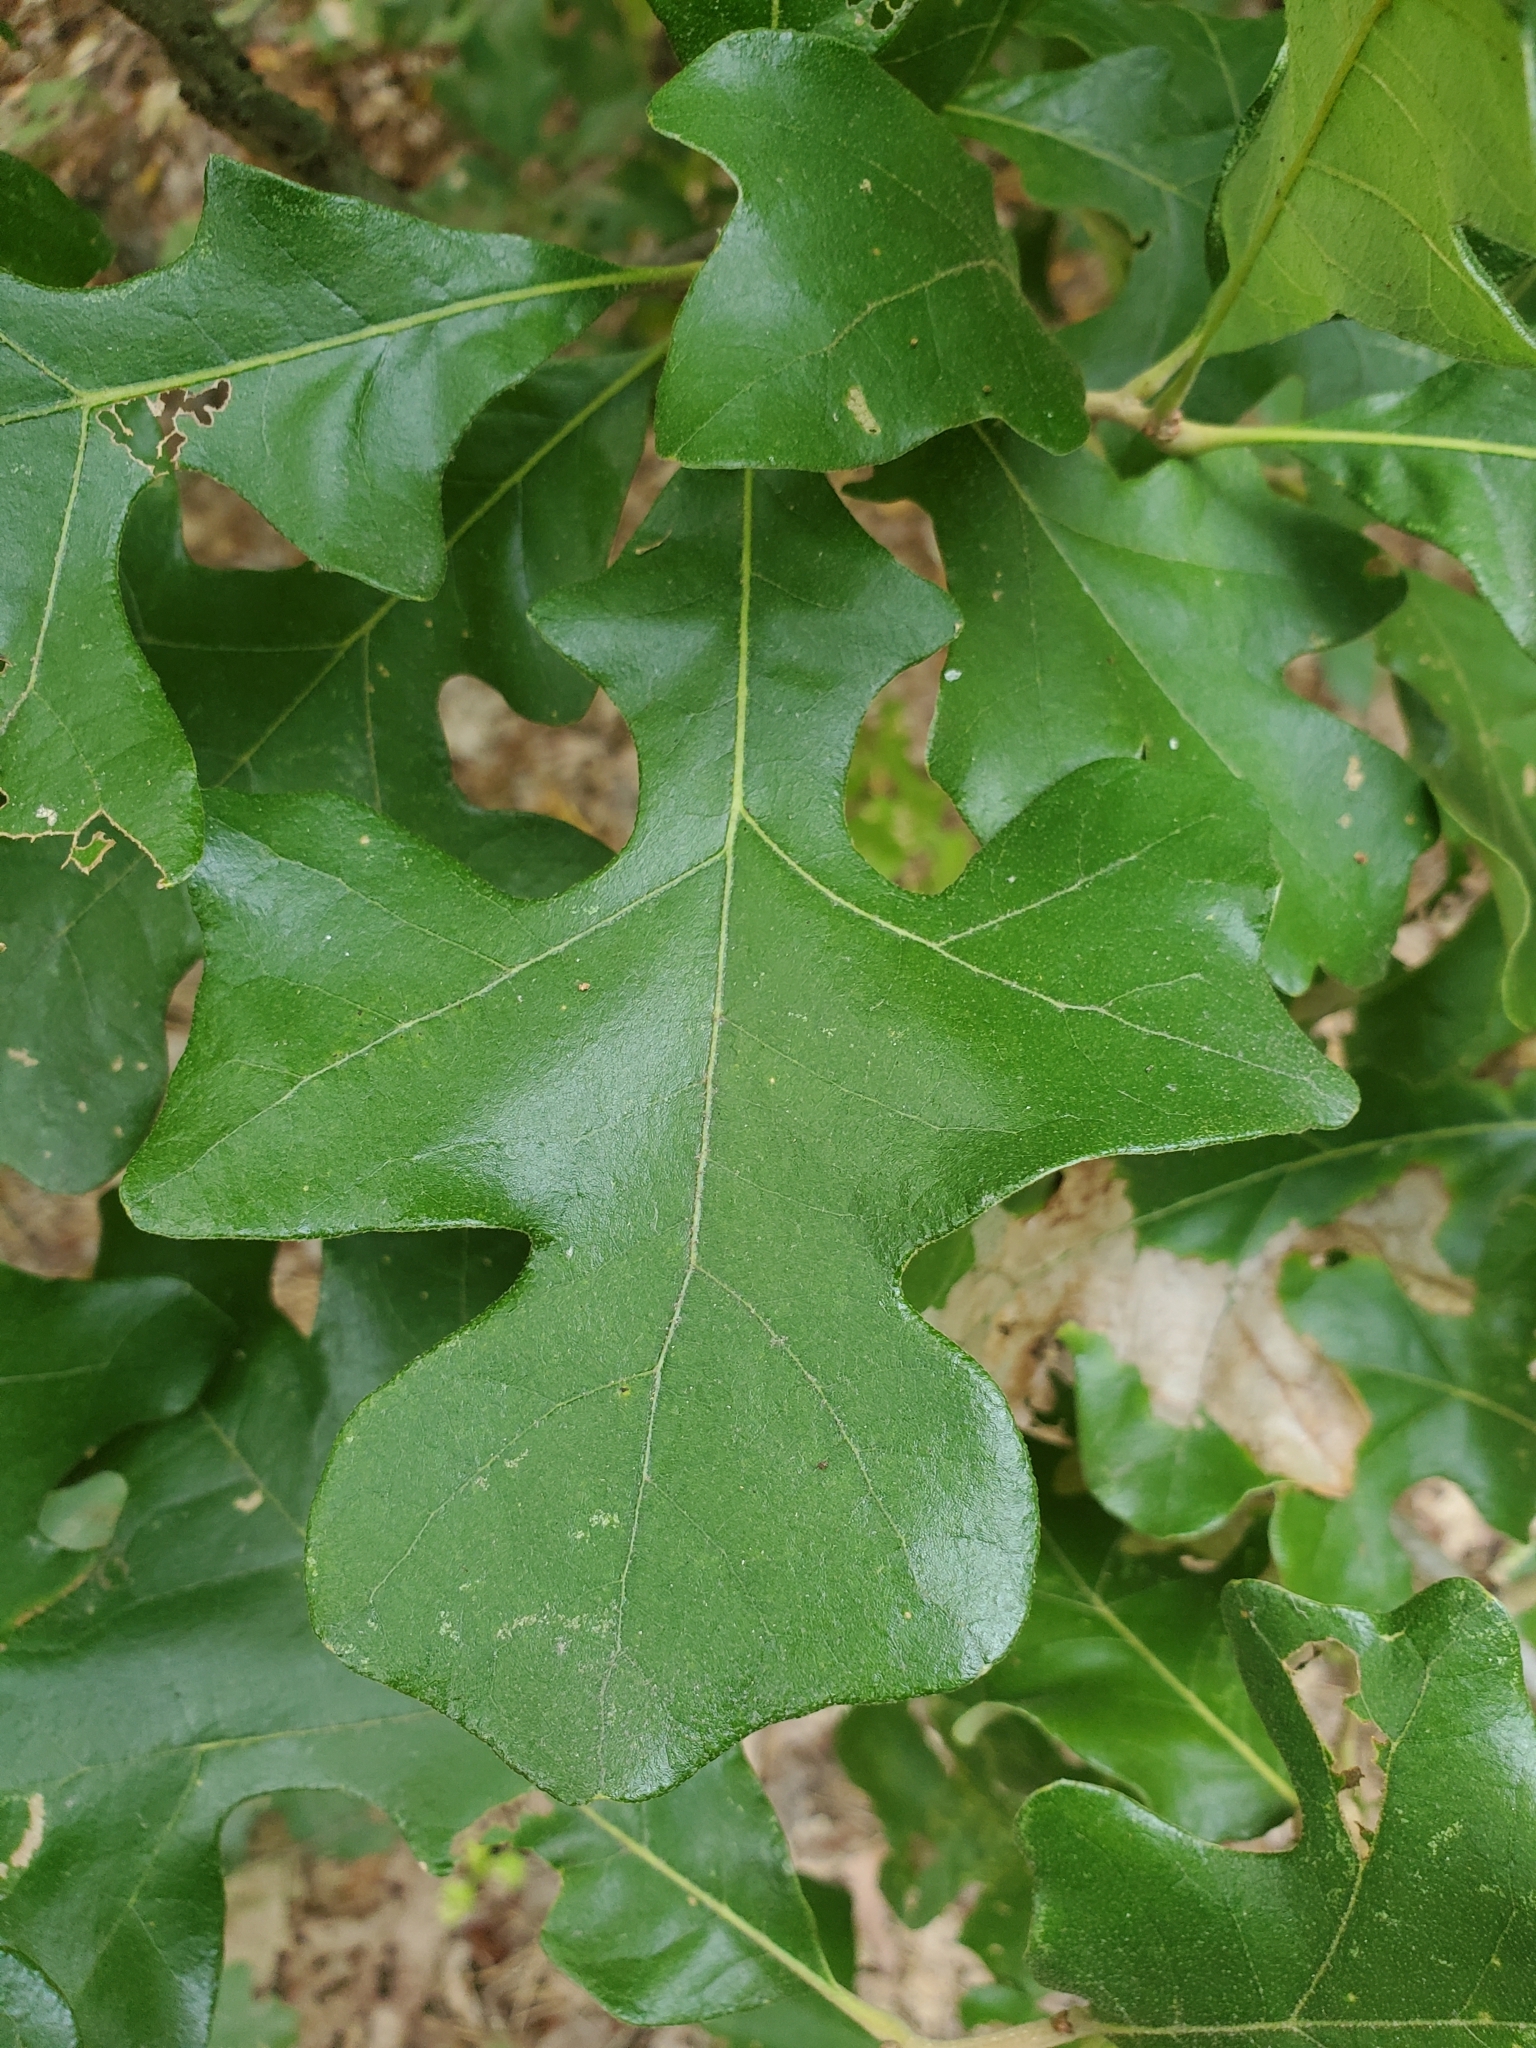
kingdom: Plantae
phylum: Tracheophyta
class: Magnoliopsida
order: Fagales
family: Fagaceae
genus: Quercus
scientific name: Quercus stellata
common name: Post oak
